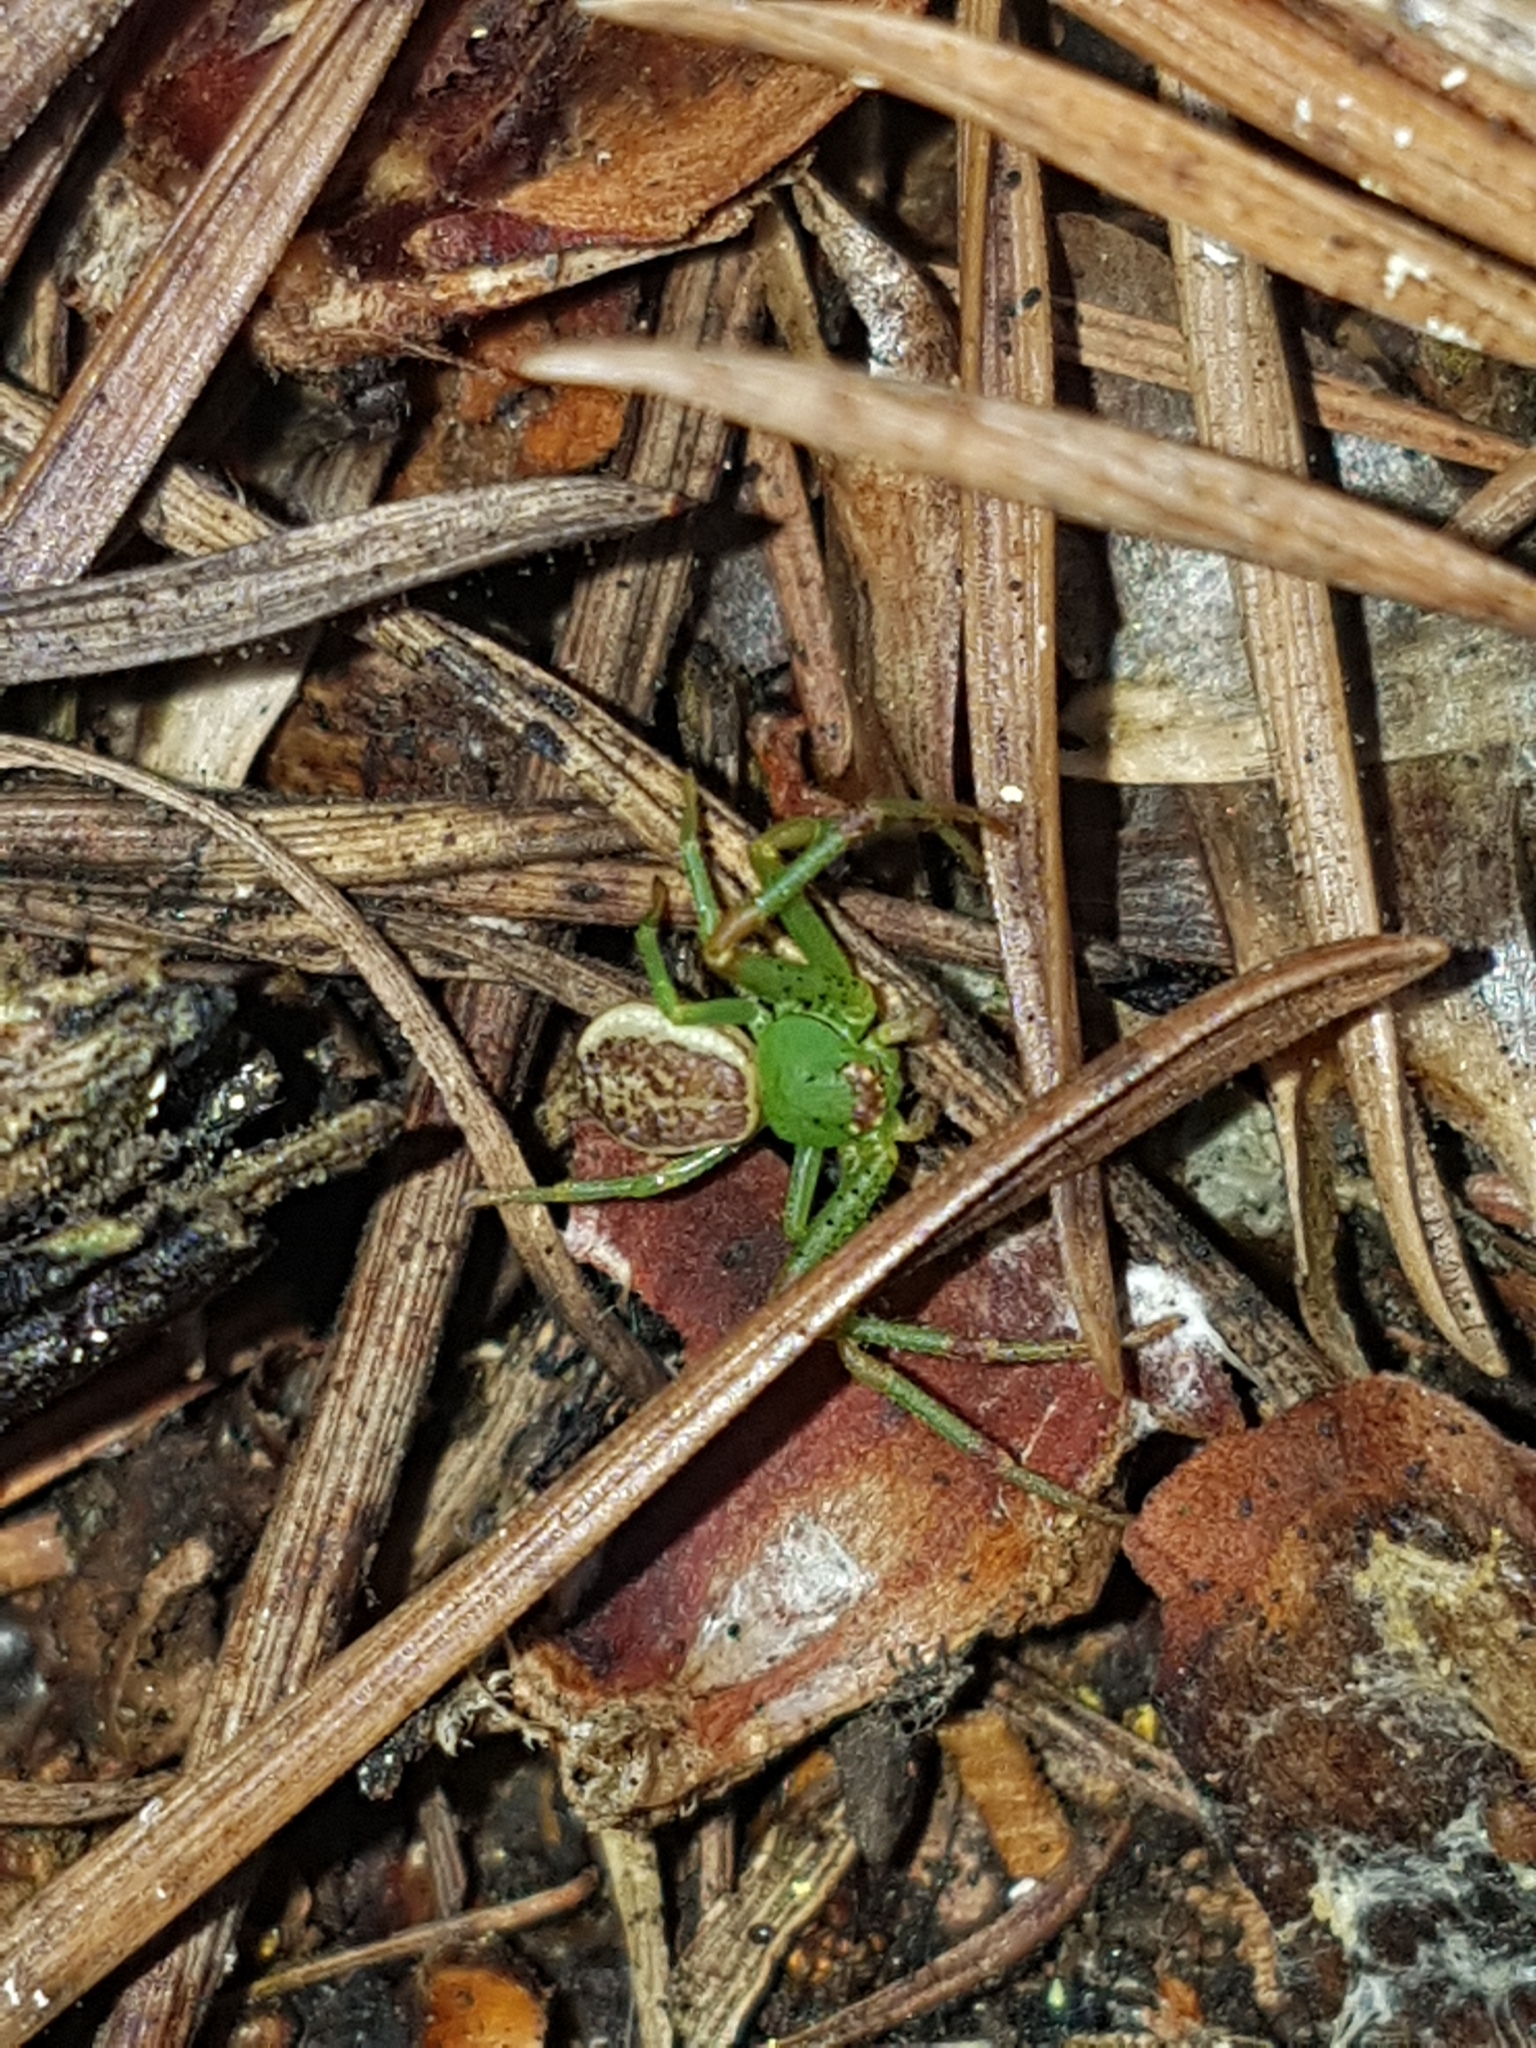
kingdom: Animalia
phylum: Arthropoda
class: Arachnida
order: Araneae
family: Thomisidae
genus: Diaea
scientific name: Diaea dorsata
